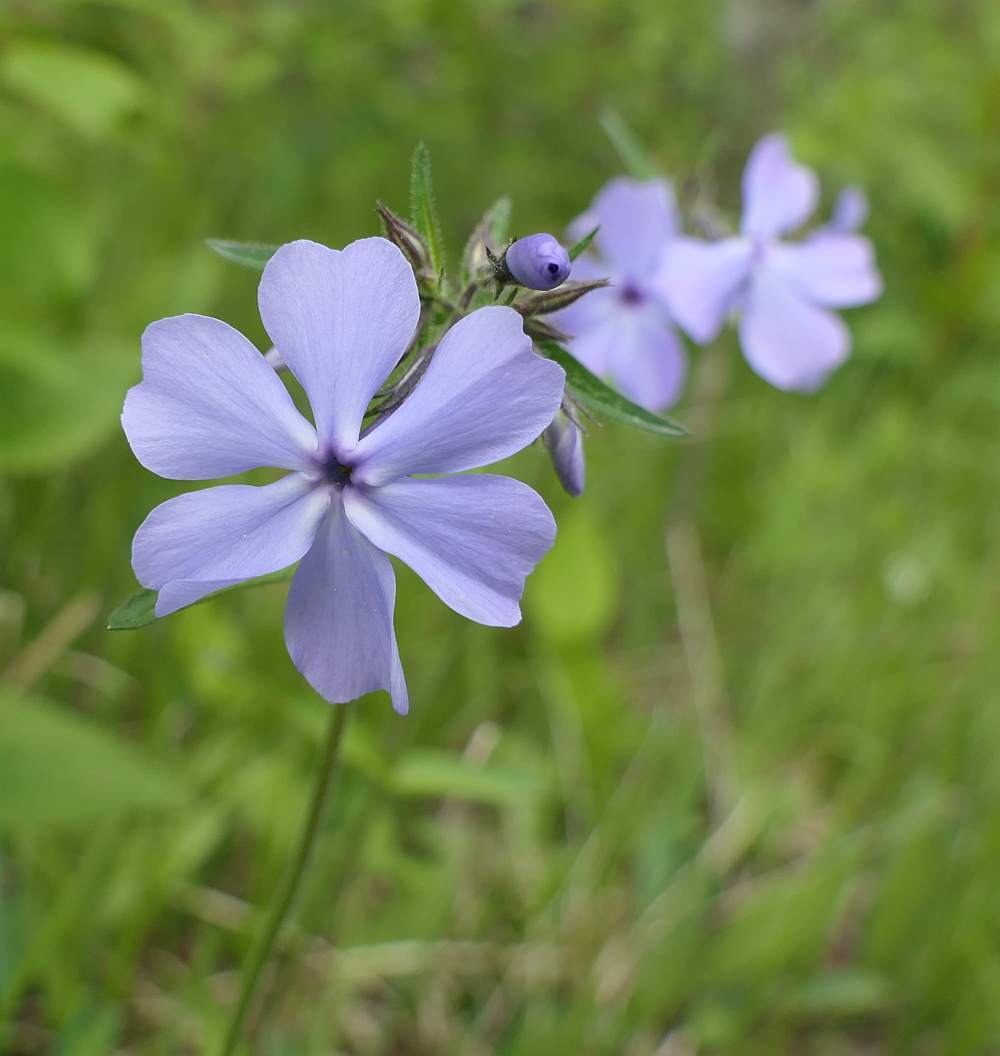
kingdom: Plantae
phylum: Tracheophyta
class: Magnoliopsida
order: Ericales
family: Polemoniaceae
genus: Phlox
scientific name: Phlox divaricata
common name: Blue phlox
